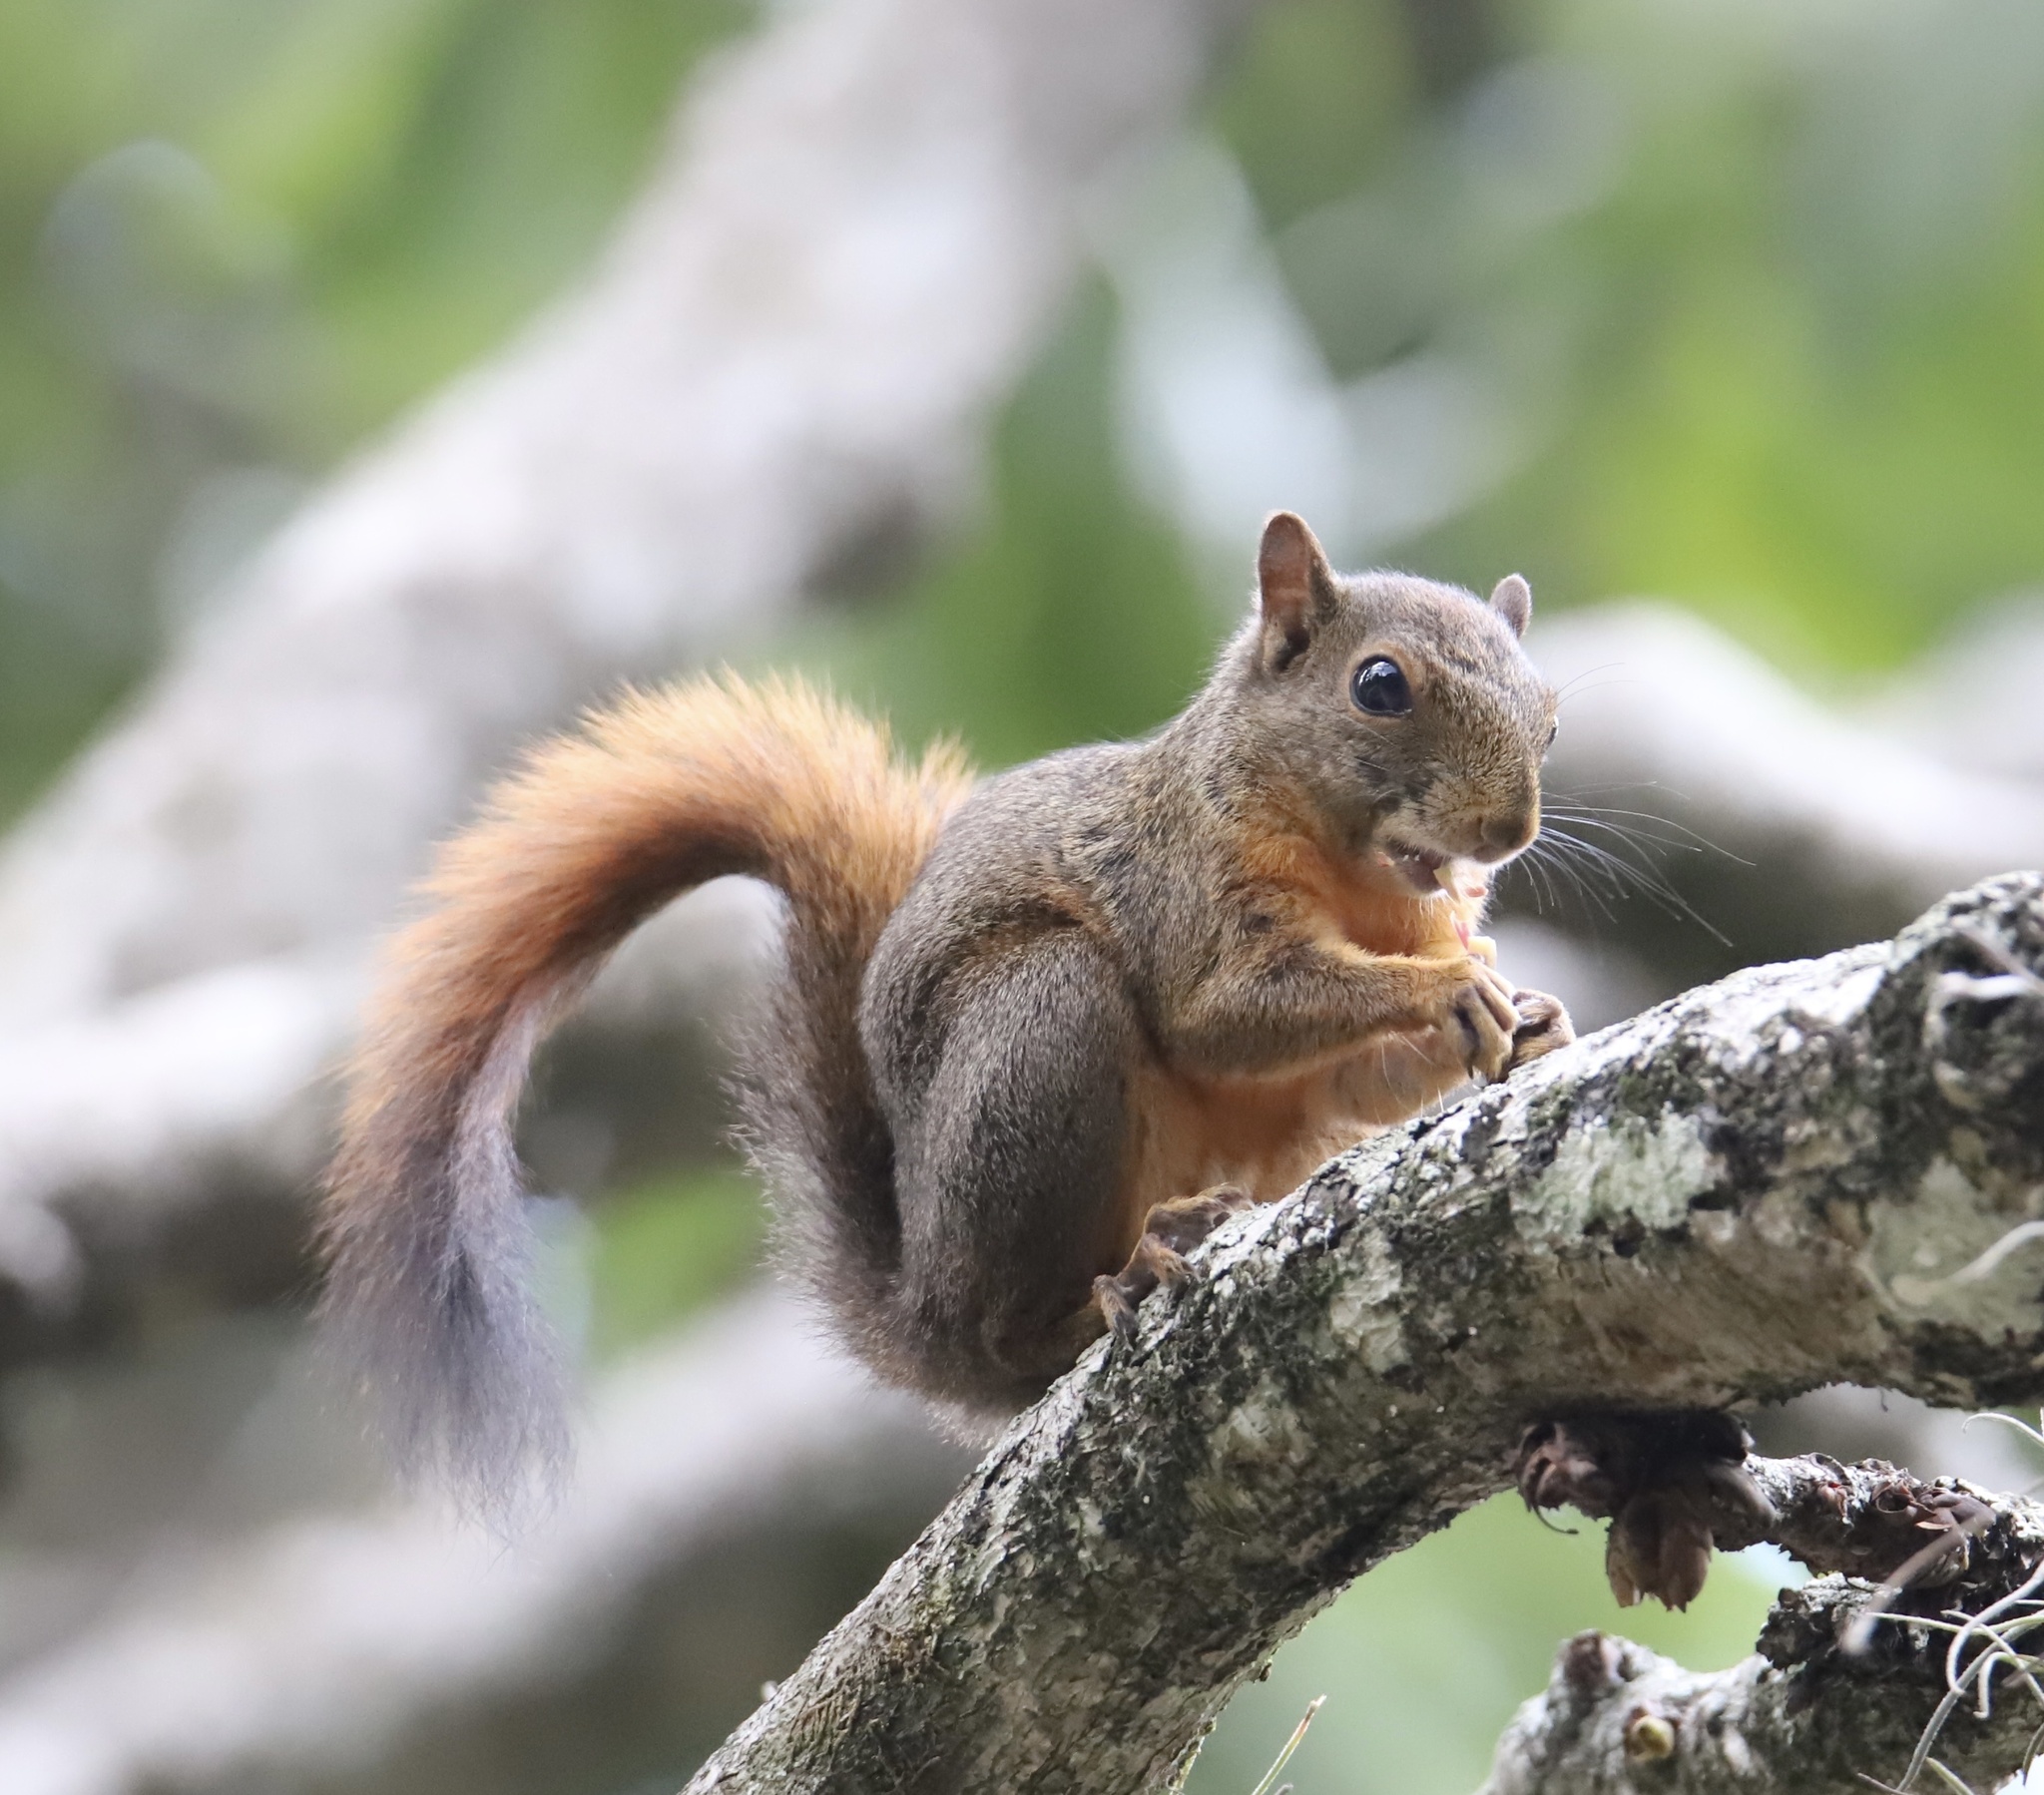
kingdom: Animalia
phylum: Chordata
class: Mammalia
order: Rodentia
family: Sciuridae
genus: Sciurus
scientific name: Sciurus granatensis
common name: Red-tailed squirrel
